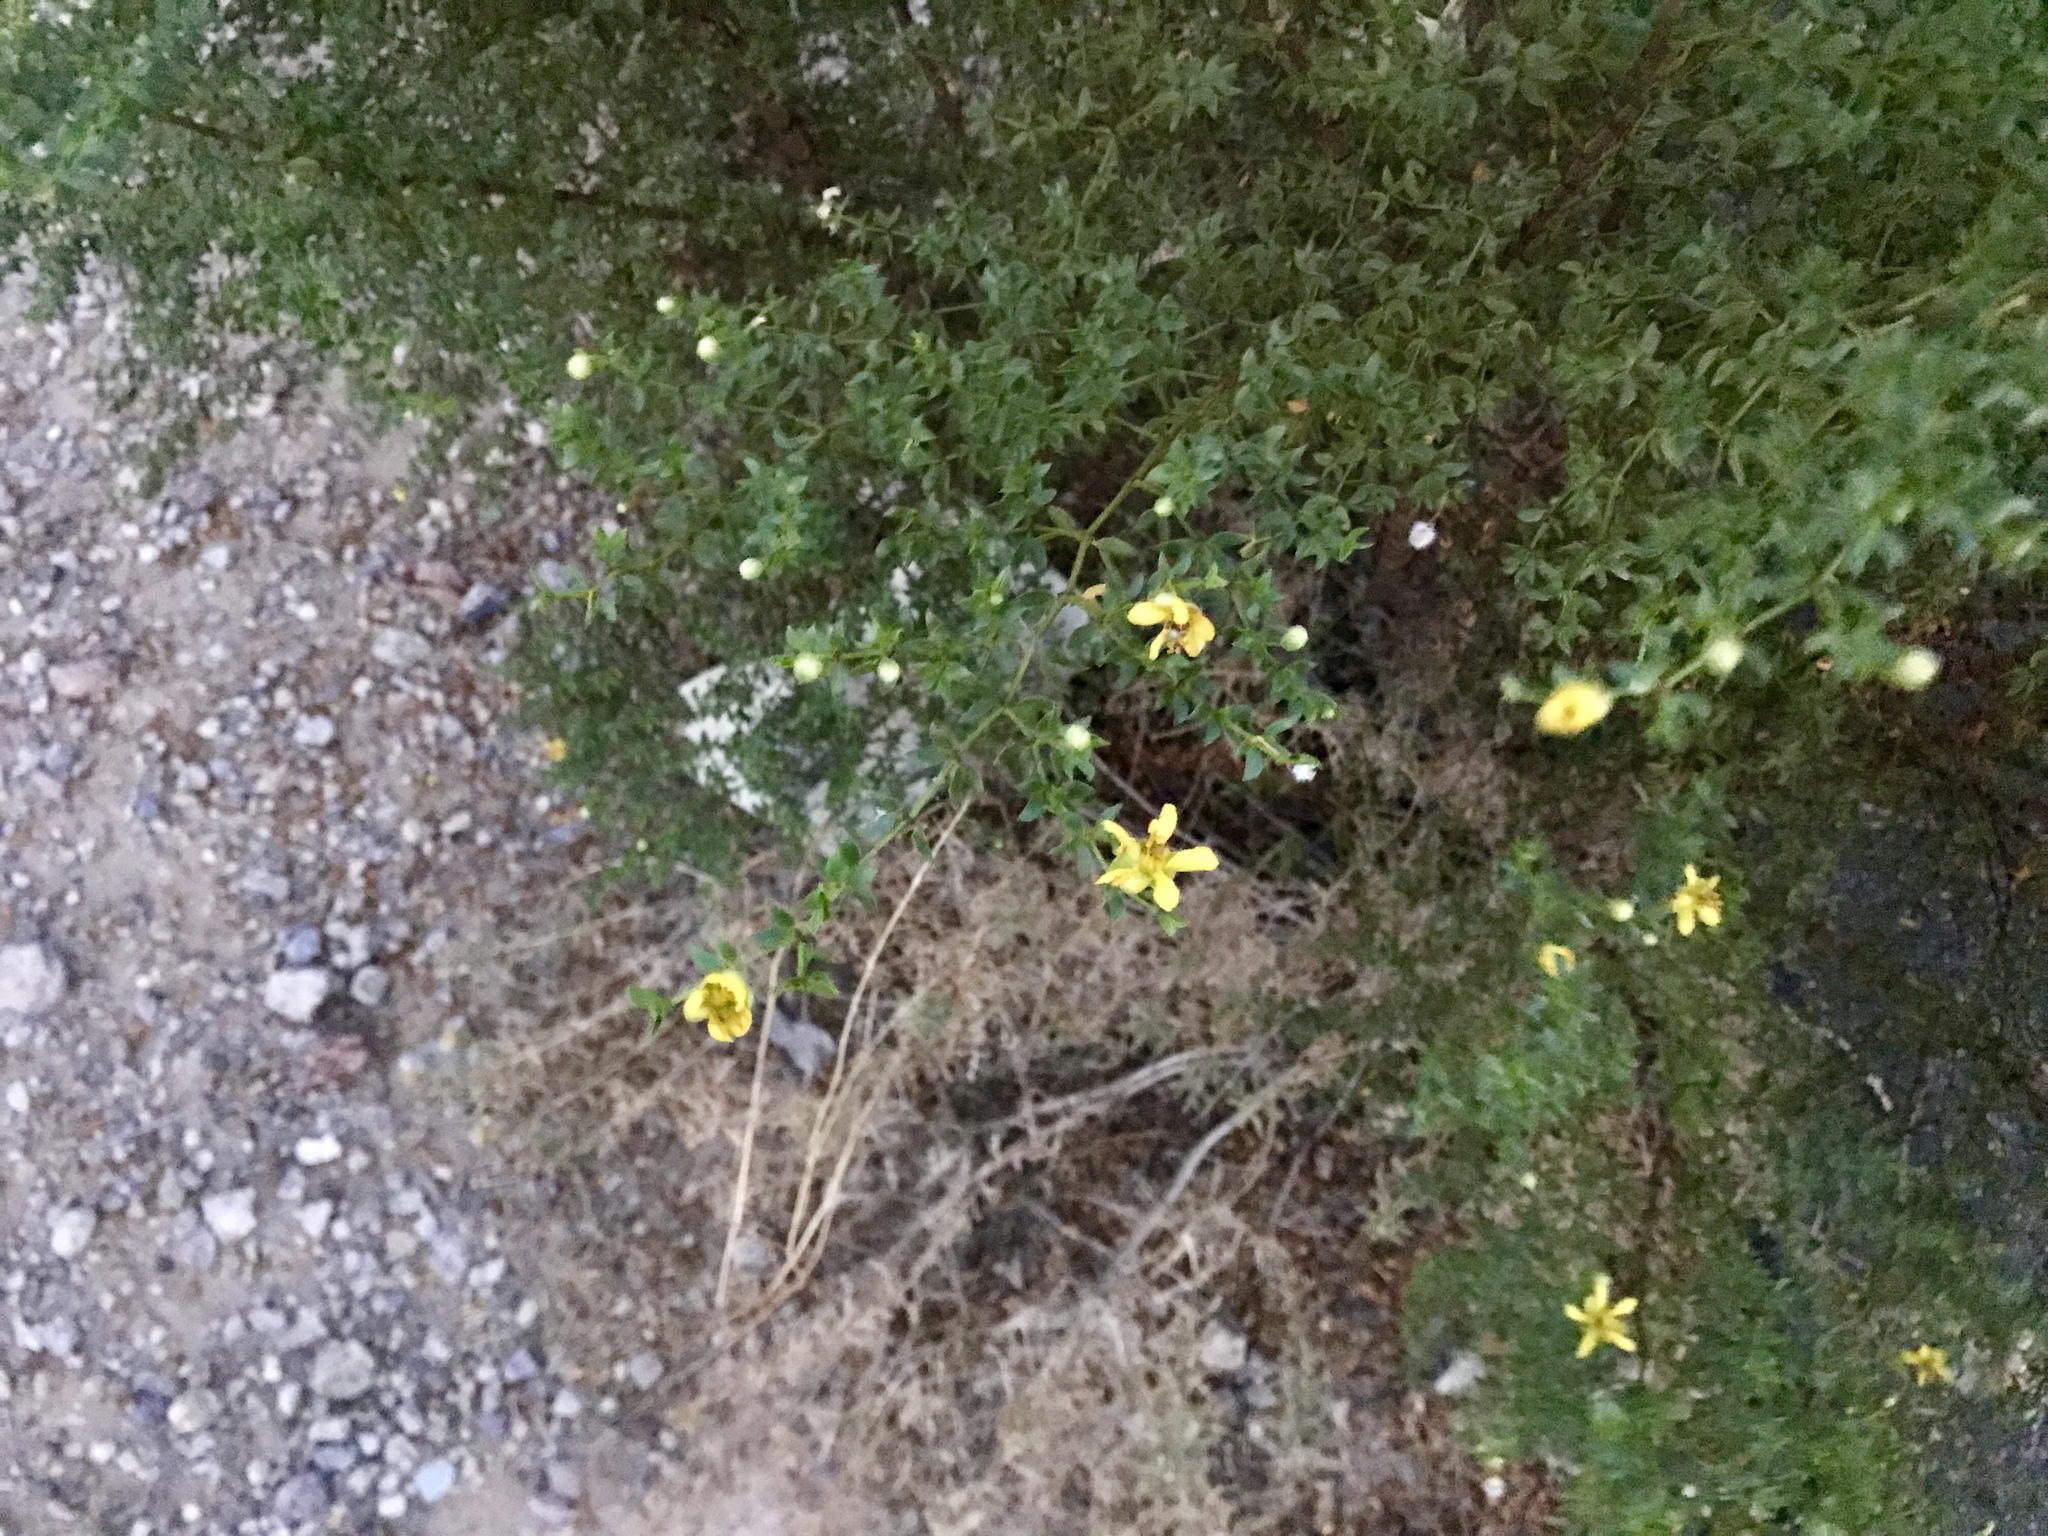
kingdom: Plantae
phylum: Tracheophyta
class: Magnoliopsida
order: Zygophyllales
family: Zygophyllaceae
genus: Larrea
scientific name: Larrea tridentata
